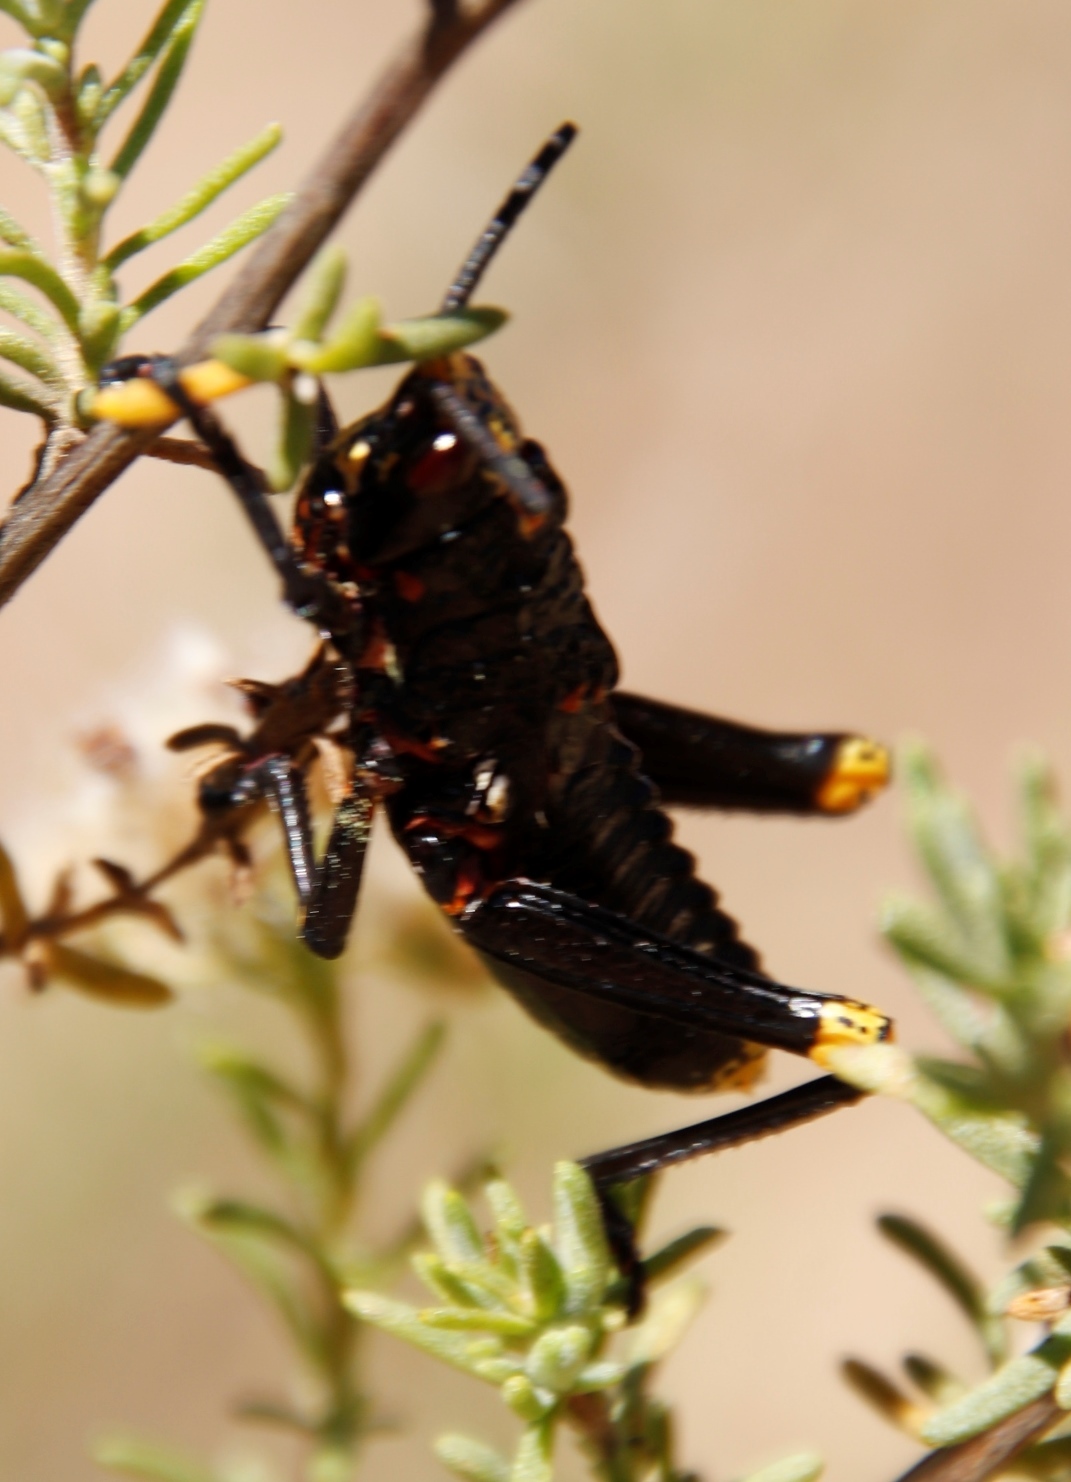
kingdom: Animalia
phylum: Arthropoda
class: Insecta
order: Orthoptera
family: Pyrgomorphidae
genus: Dictyophorus
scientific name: Dictyophorus spumans
